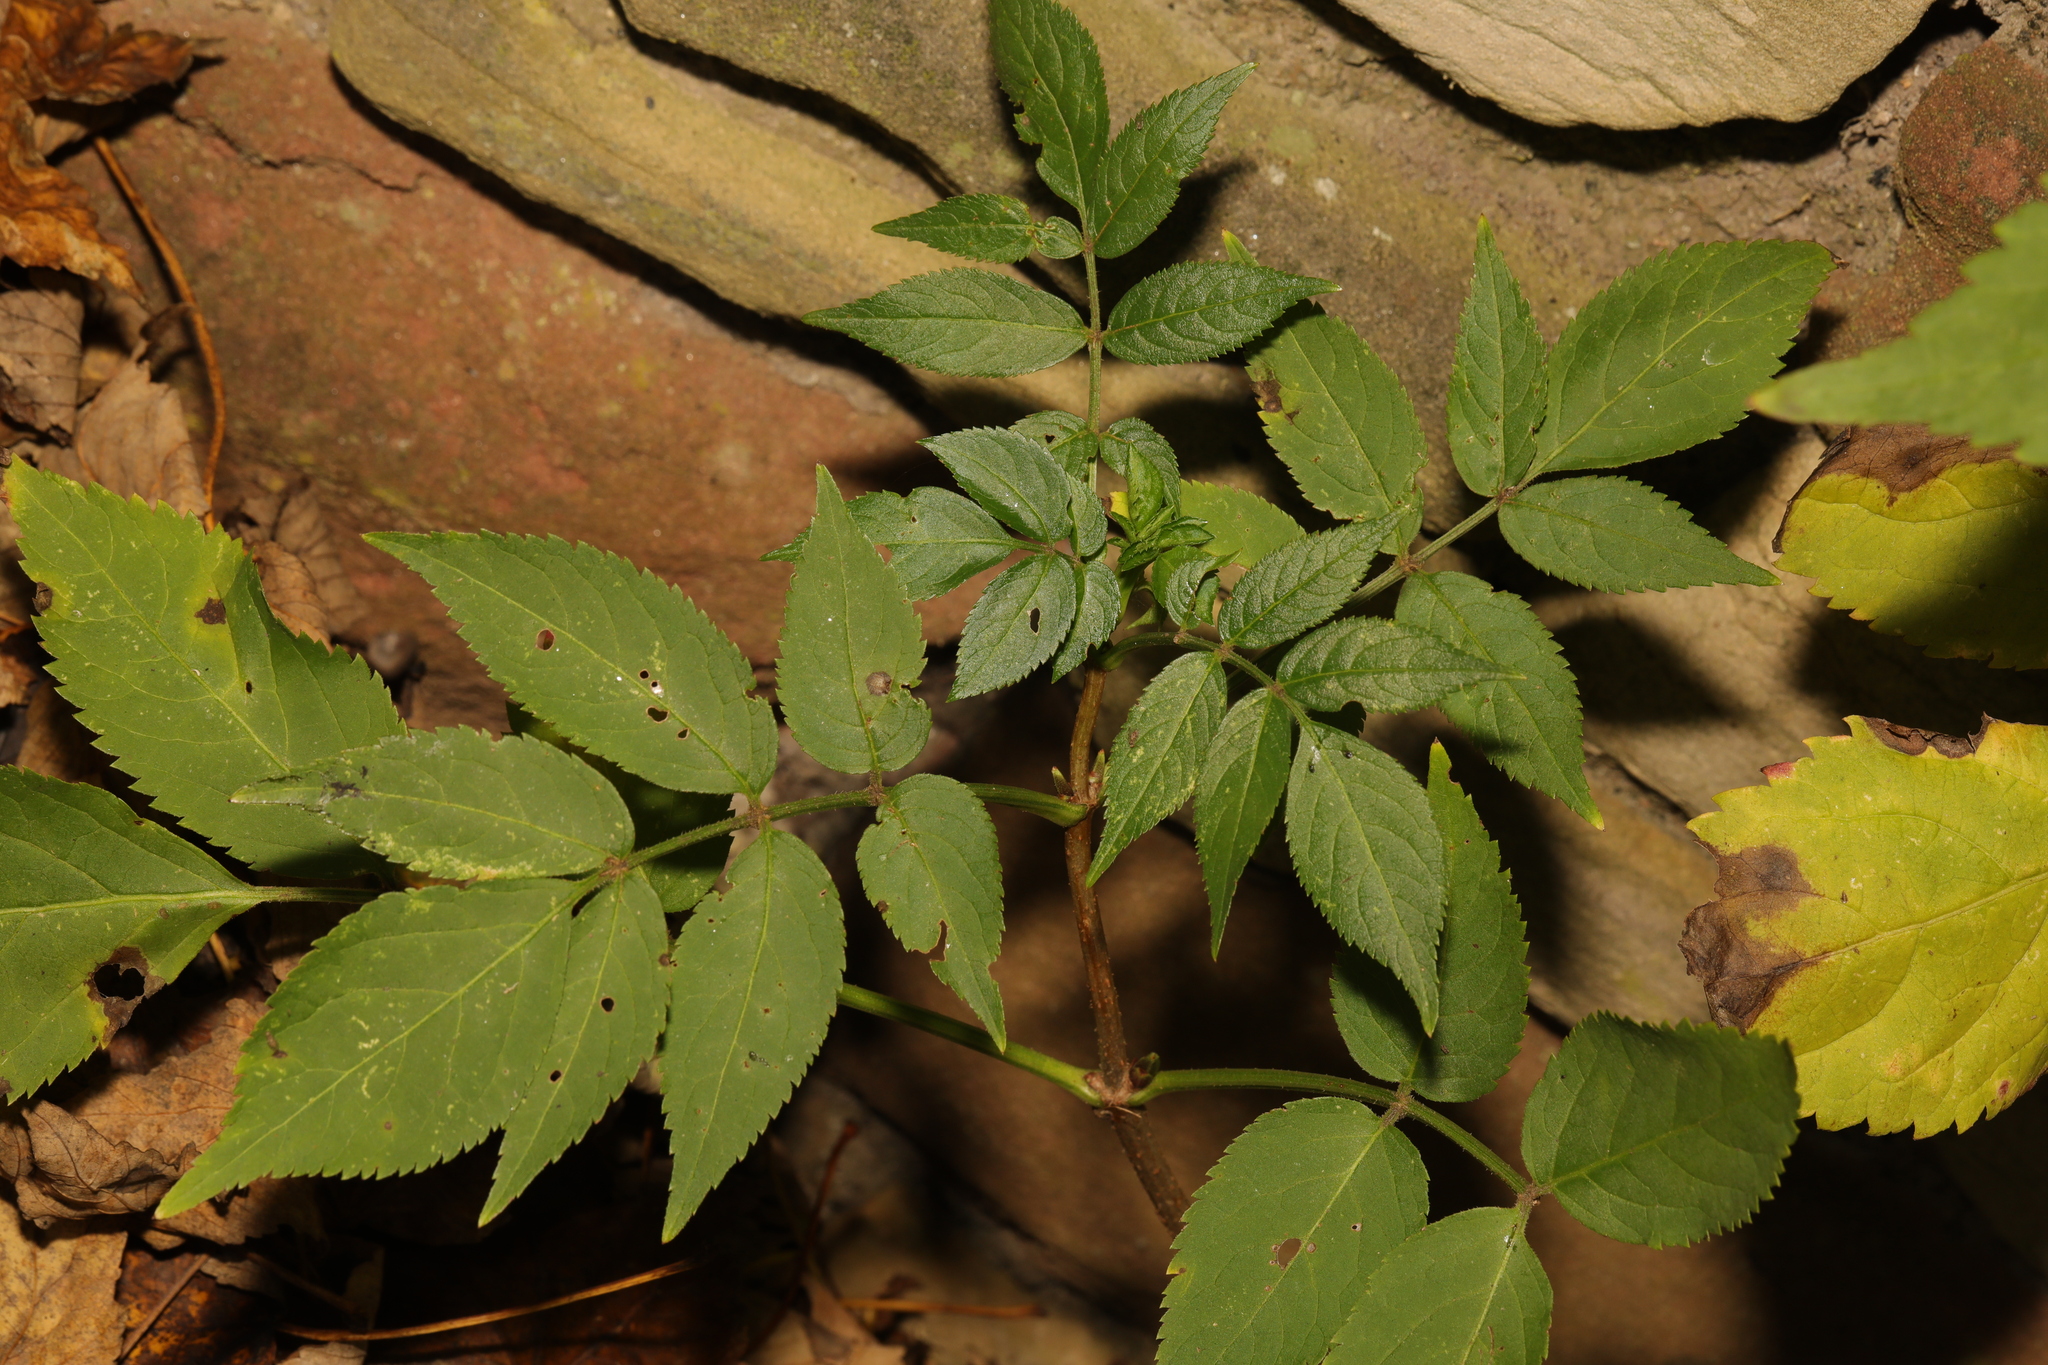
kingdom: Plantae
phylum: Tracheophyta
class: Magnoliopsida
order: Dipsacales
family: Viburnaceae
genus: Sambucus
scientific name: Sambucus nigra
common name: Elder
